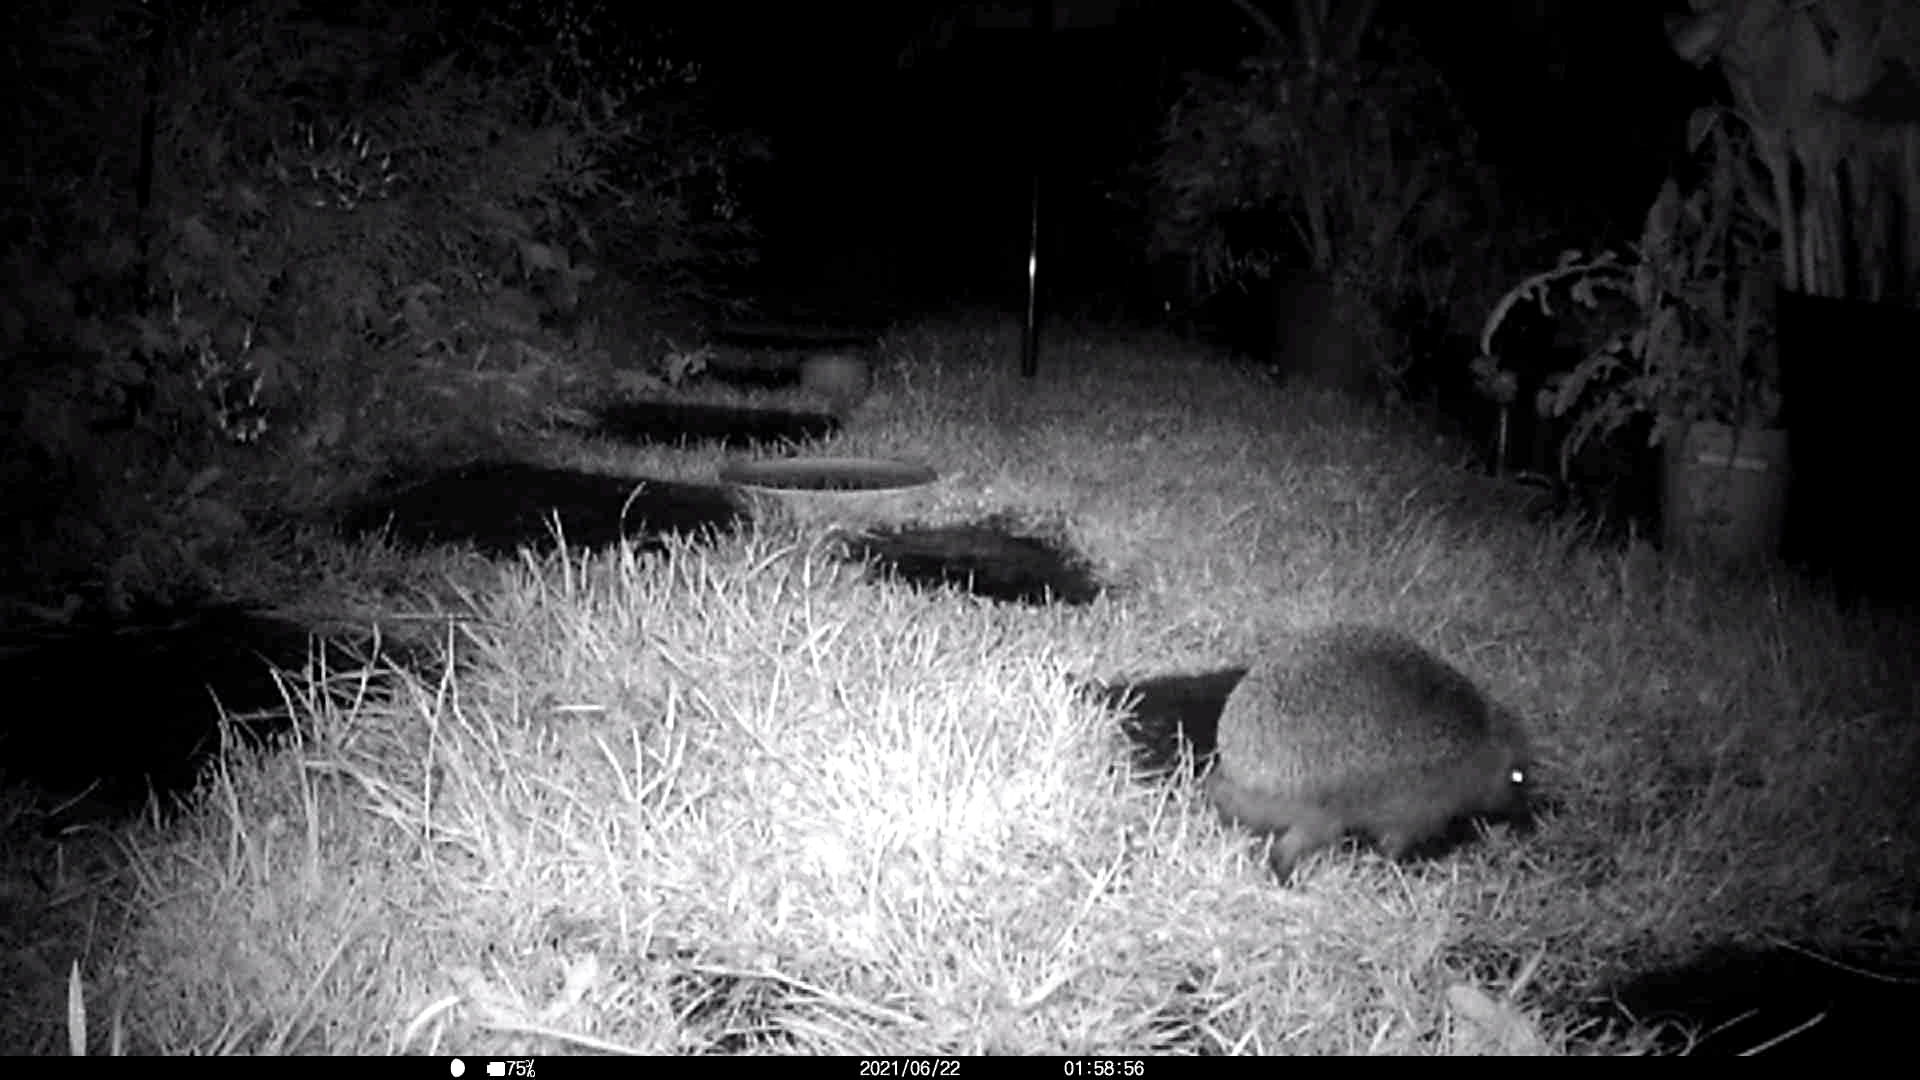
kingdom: Animalia
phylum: Chordata
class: Mammalia
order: Erinaceomorpha
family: Erinaceidae
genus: Erinaceus
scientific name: Erinaceus europaeus
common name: West european hedgehog
